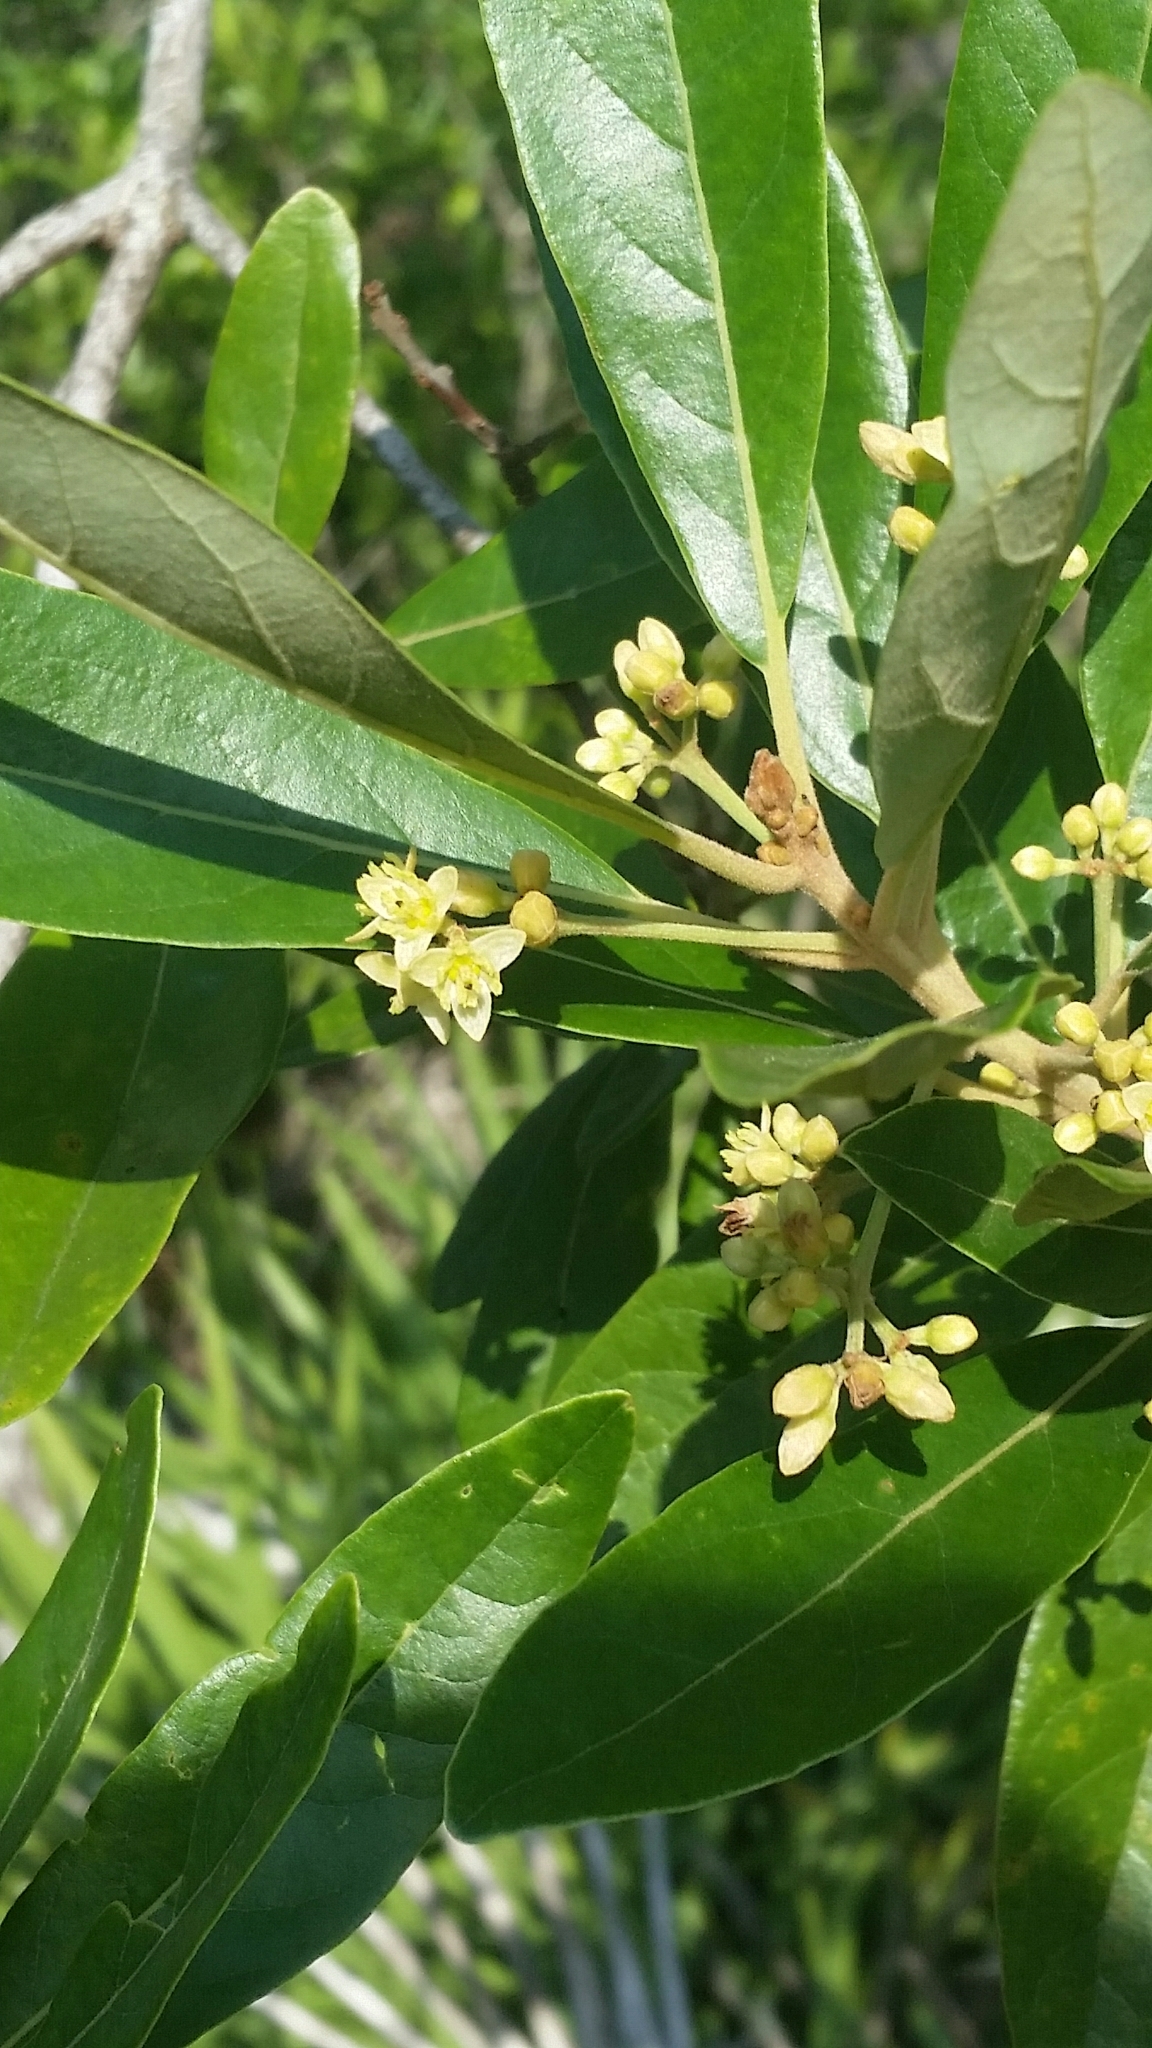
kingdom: Plantae
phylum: Tracheophyta
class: Magnoliopsida
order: Laurales
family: Lauraceae
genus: Persea
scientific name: Persea palustris
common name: Swampbay
